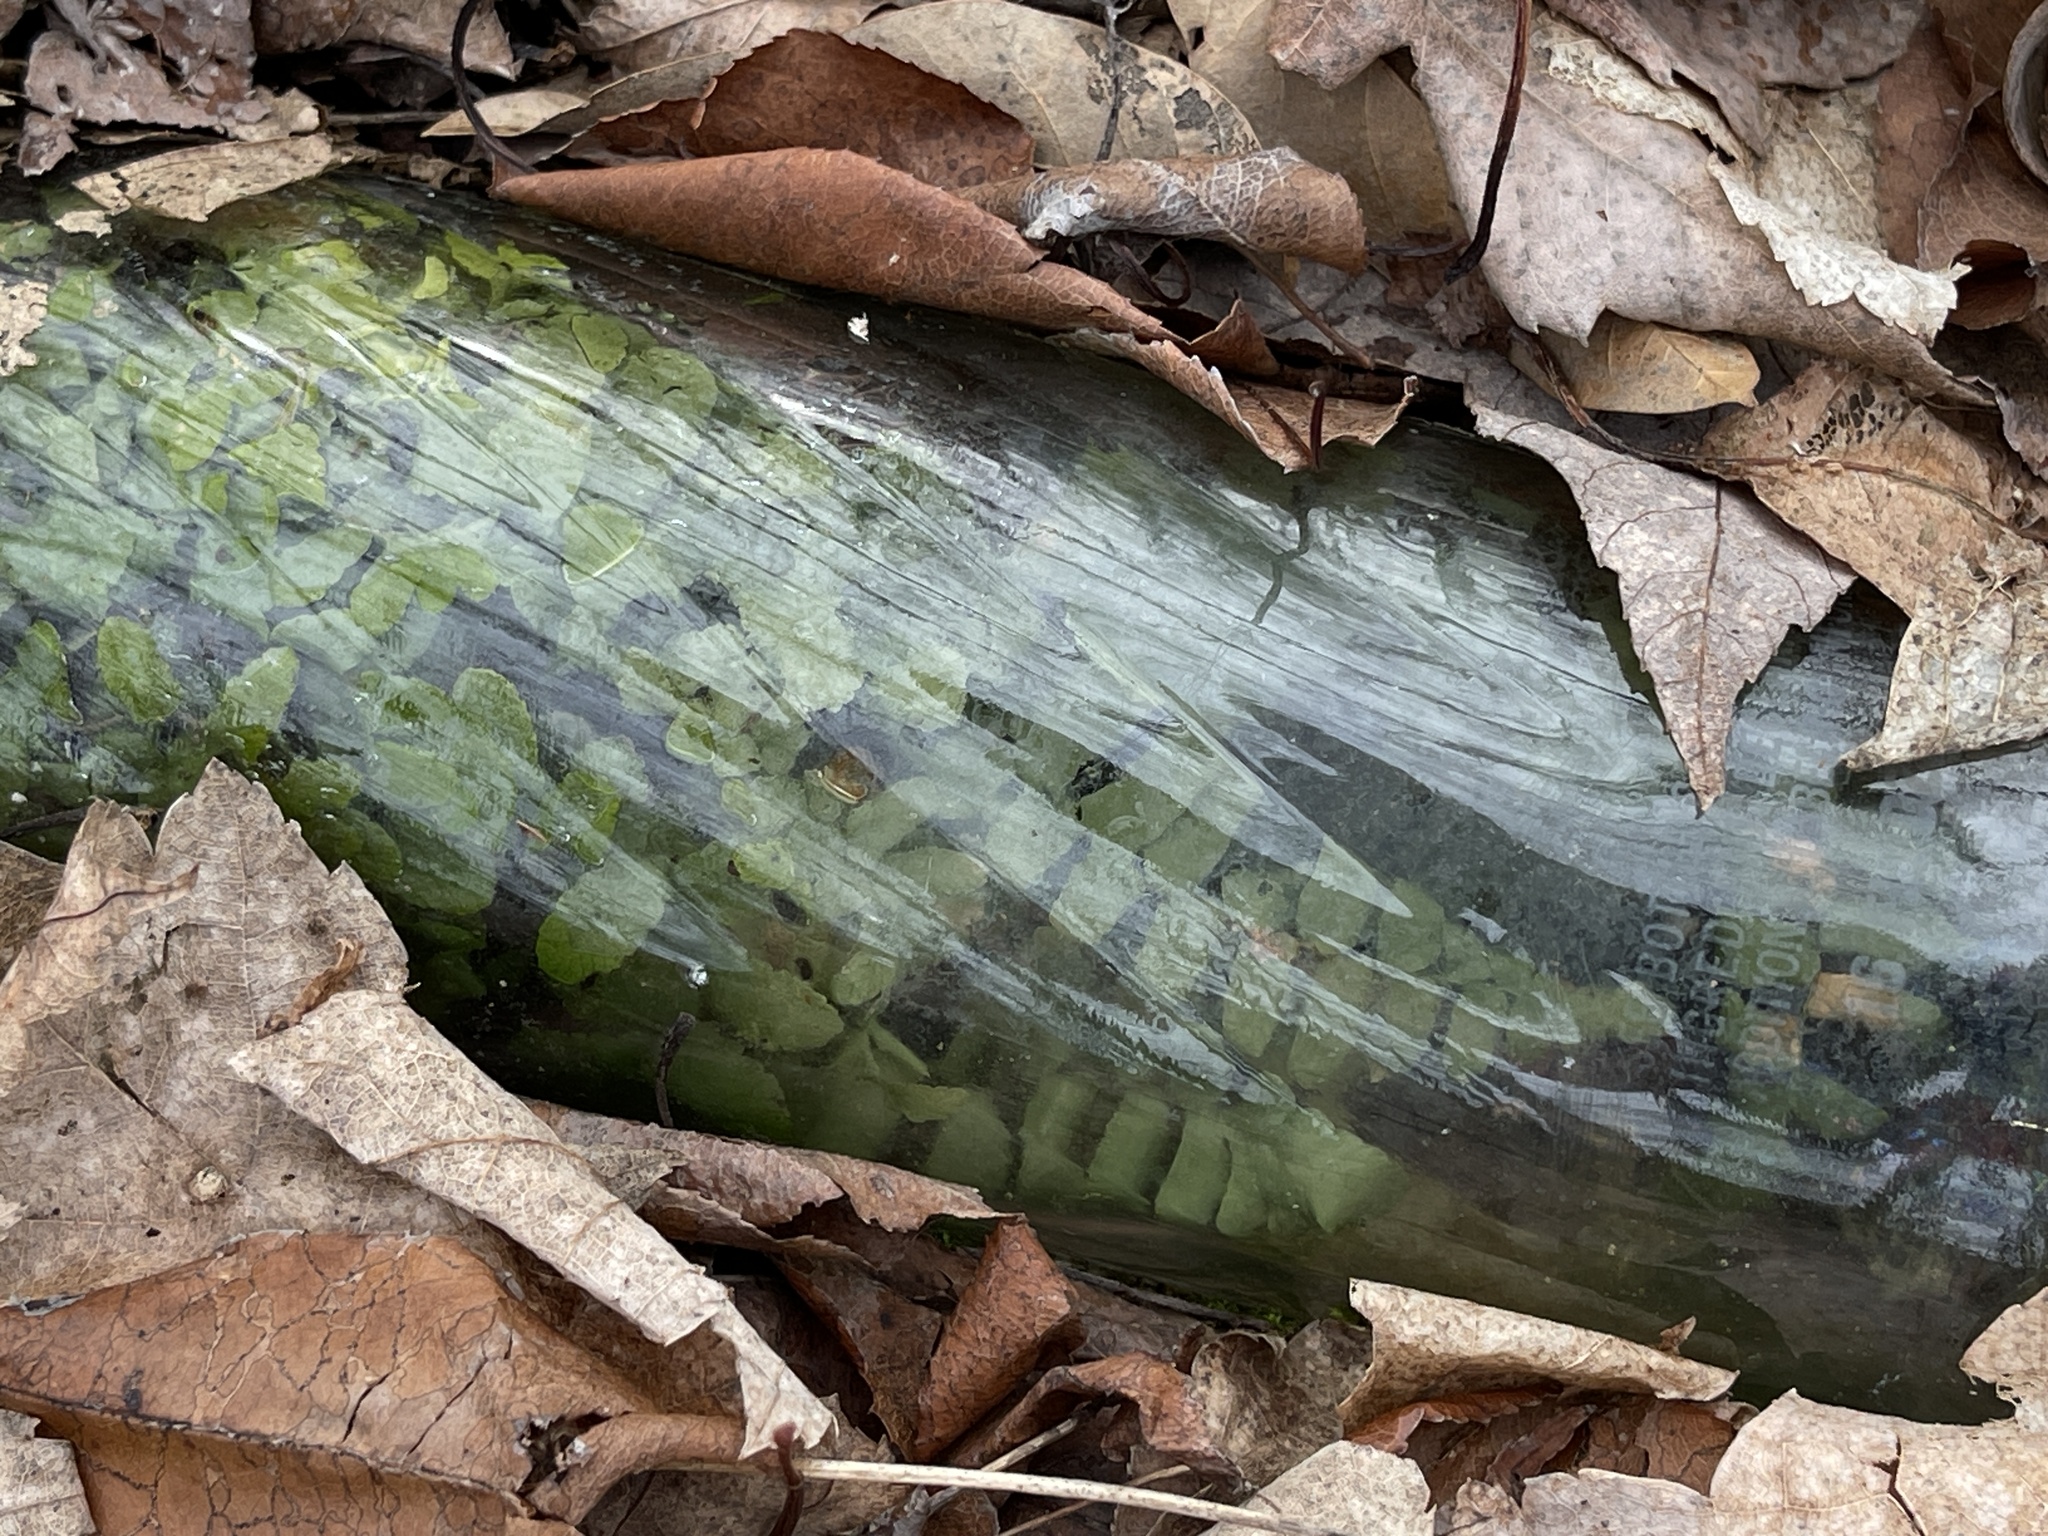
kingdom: Plantae
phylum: Tracheophyta
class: Polypodiopsida
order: Polypodiales
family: Aspleniaceae
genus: Asplenium
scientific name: Asplenium platyneuron
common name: Ebony spleenwort
